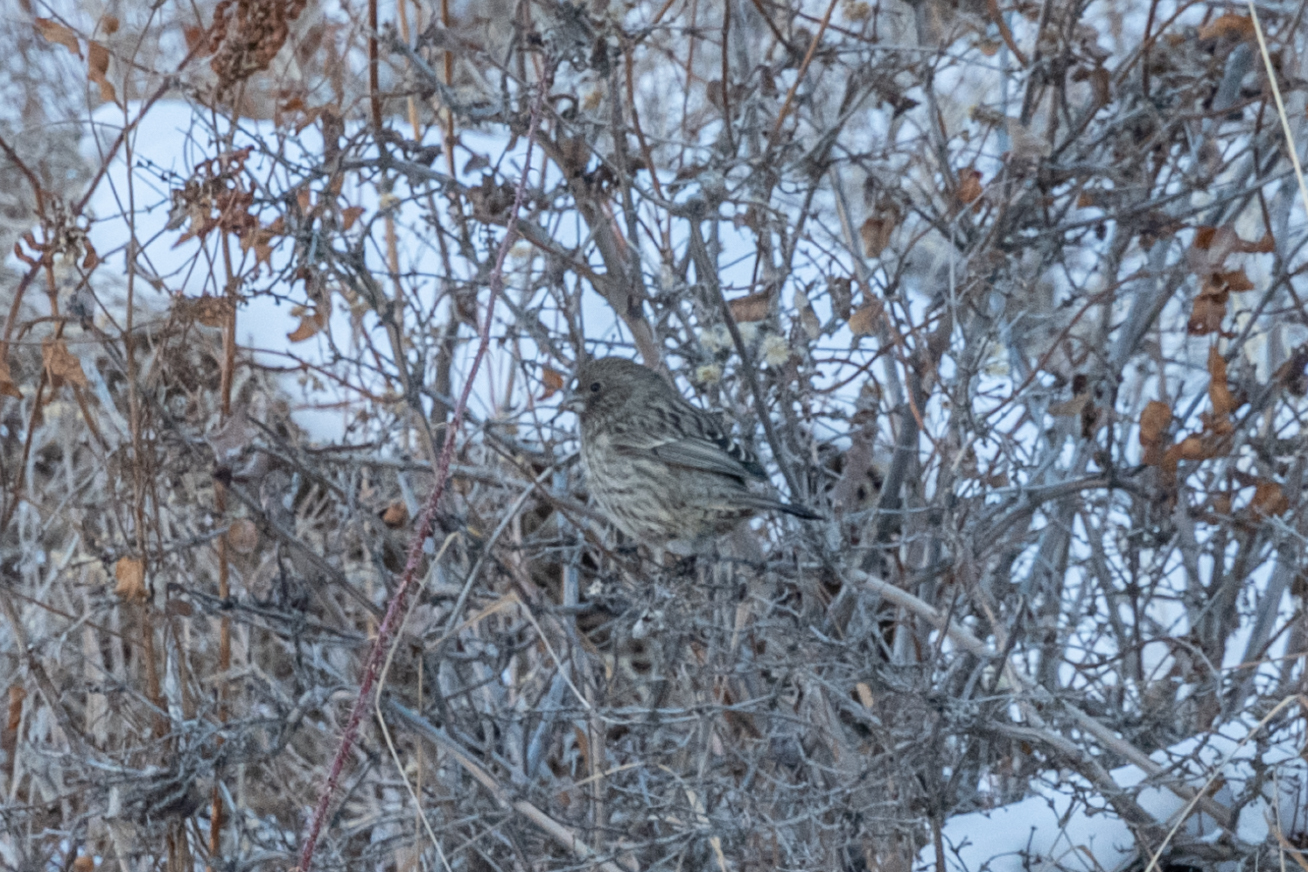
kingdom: Animalia
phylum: Chordata
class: Aves
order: Passeriformes
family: Fringillidae
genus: Carpodacus
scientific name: Carpodacus rhodochlamys
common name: Red-mantled rosefinch
